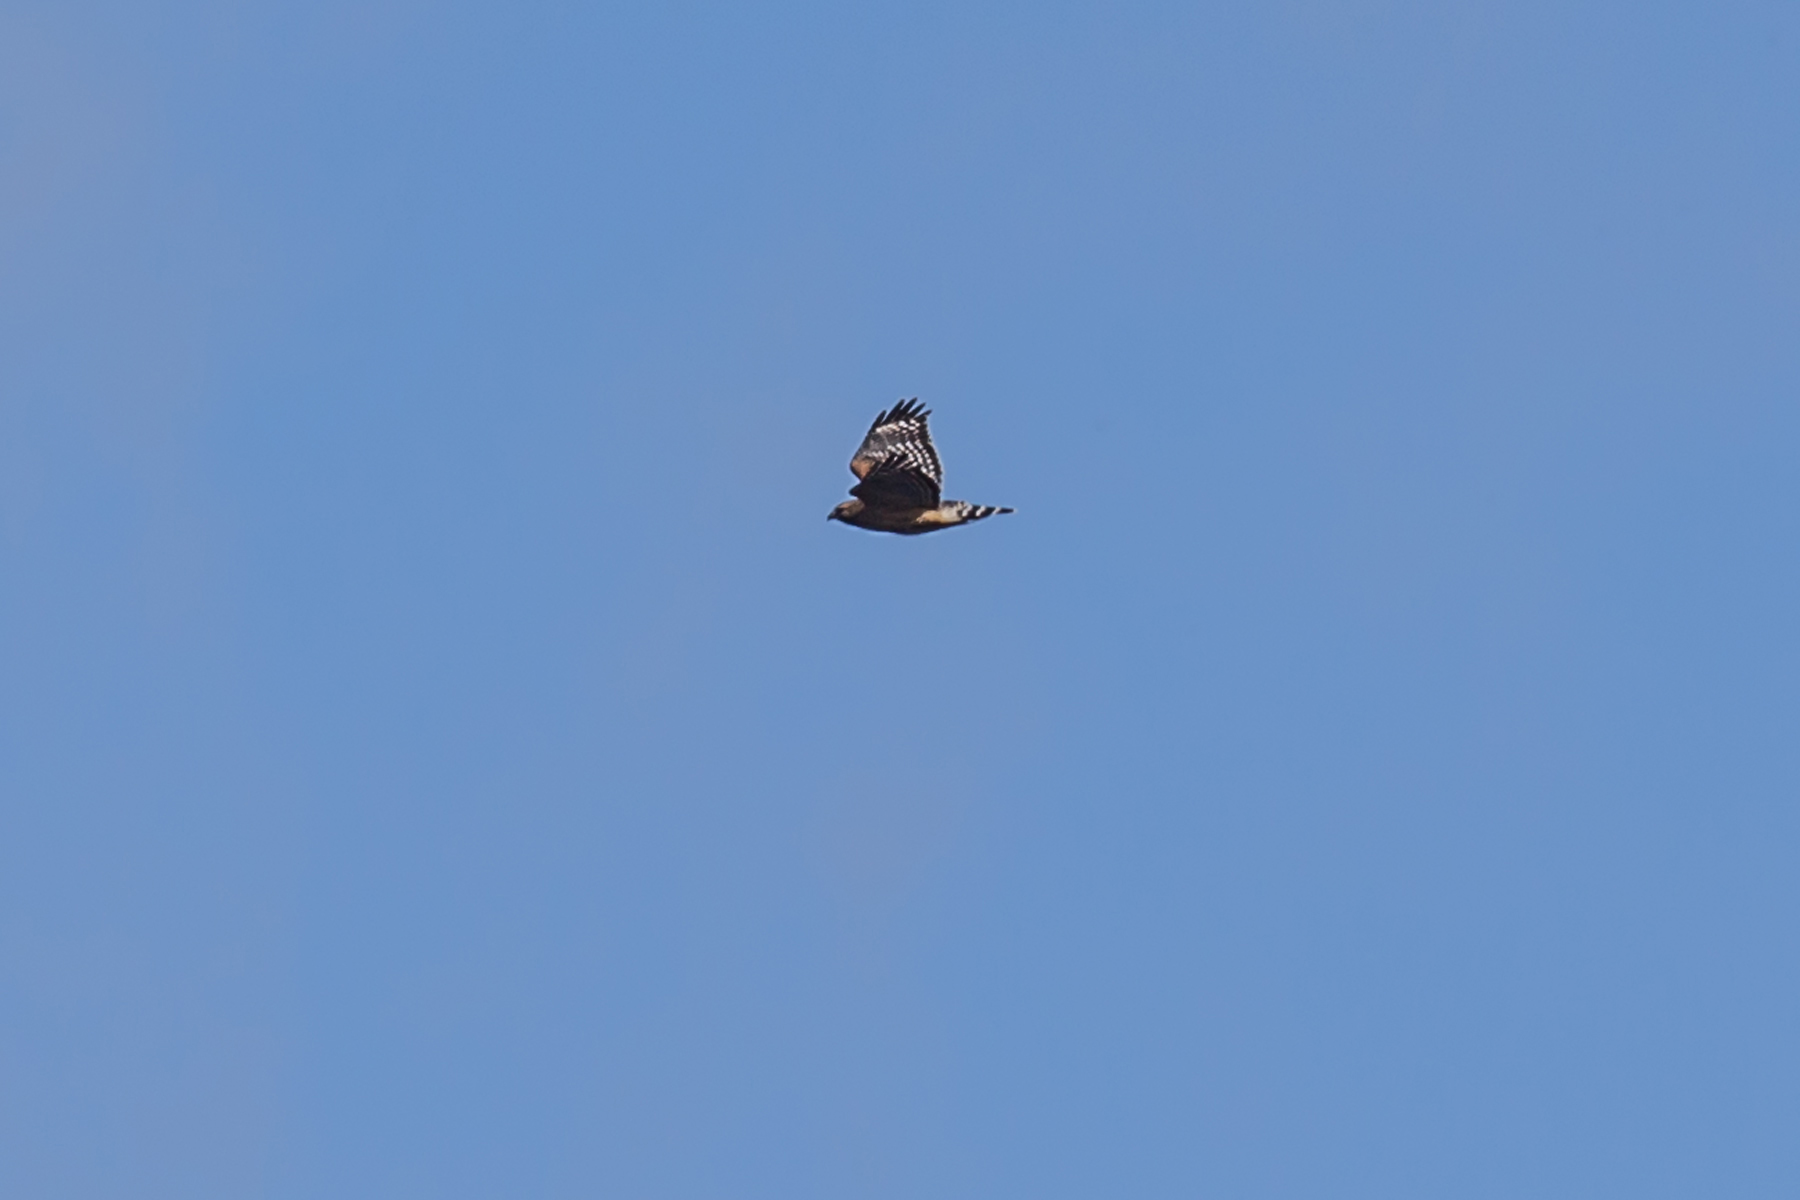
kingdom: Animalia
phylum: Chordata
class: Aves
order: Accipitriformes
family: Accipitridae
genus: Buteo
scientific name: Buteo lineatus
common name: Red-shouldered hawk
